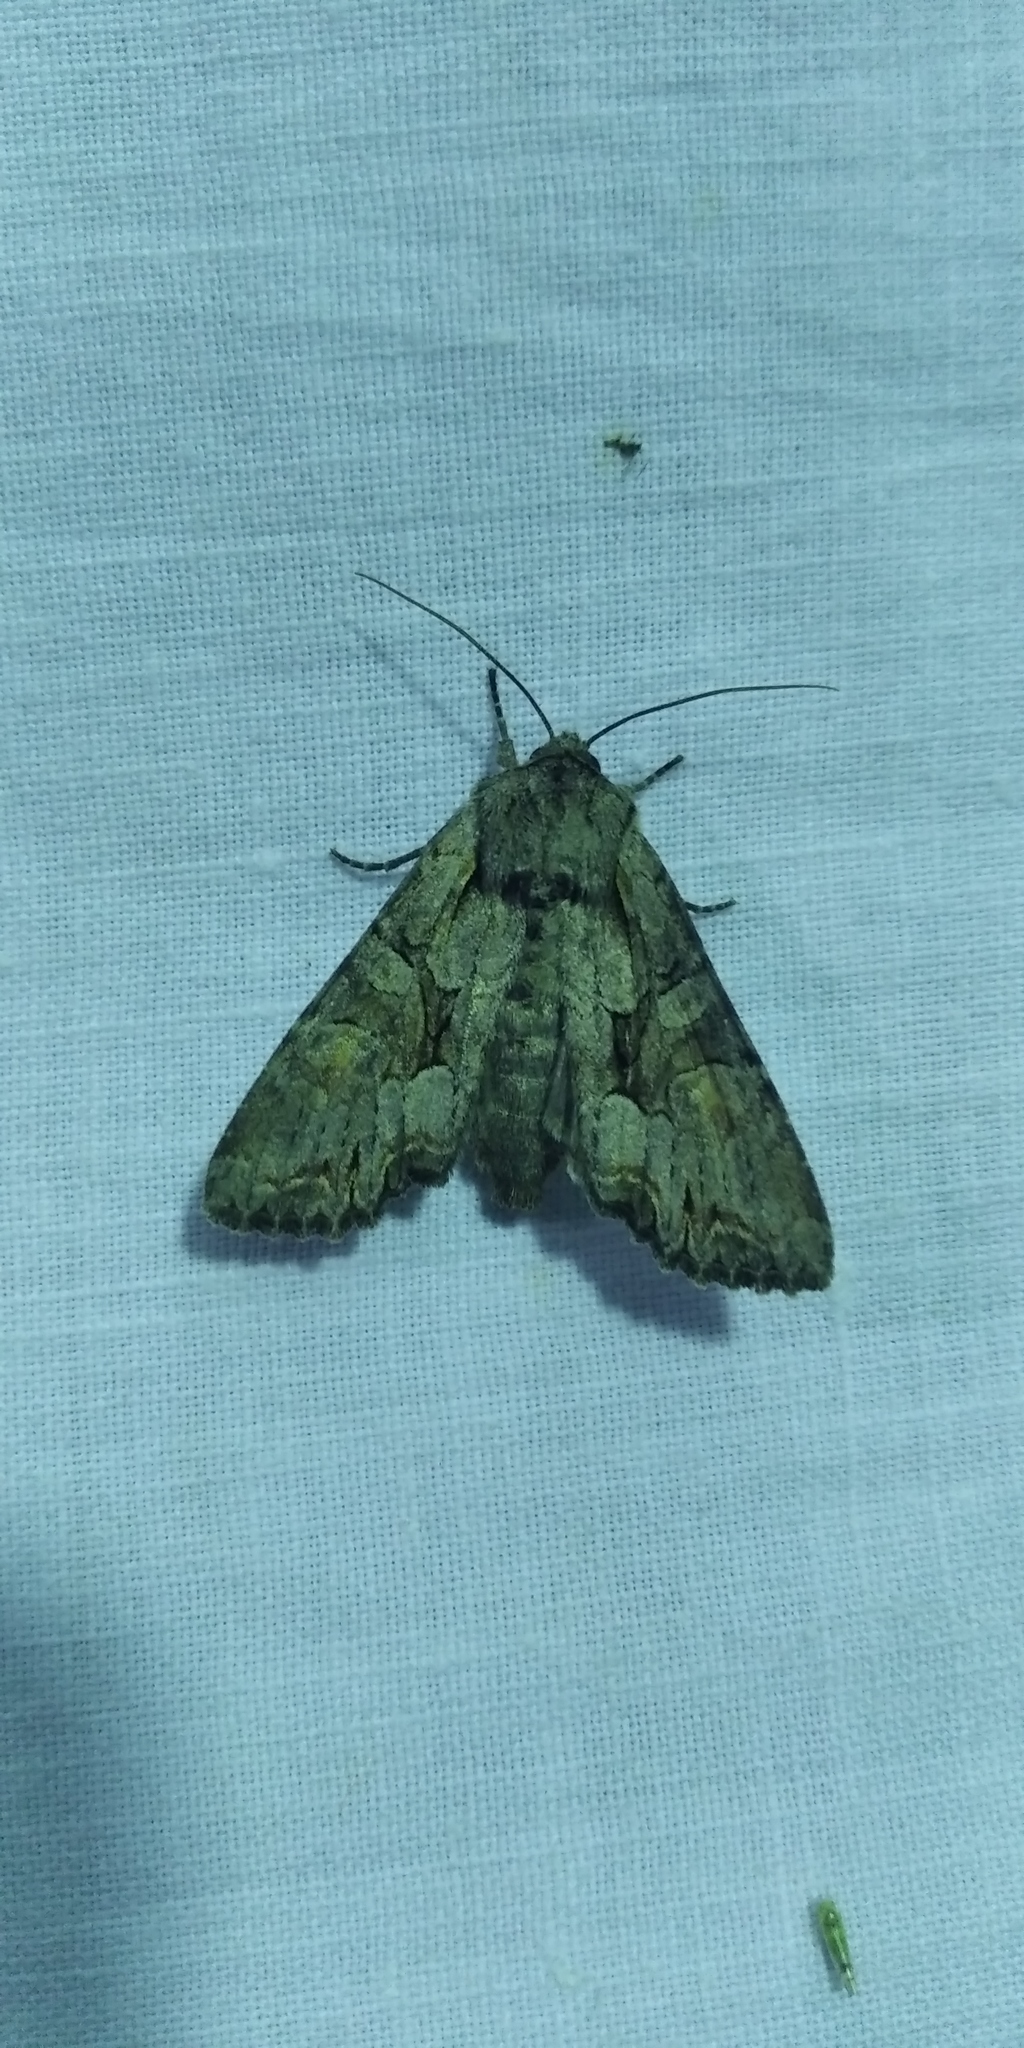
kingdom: Animalia
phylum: Arthropoda
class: Insecta
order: Lepidoptera
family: Noctuidae
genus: Lacanobia
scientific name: Lacanobia w-latinum
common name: Light brocade
